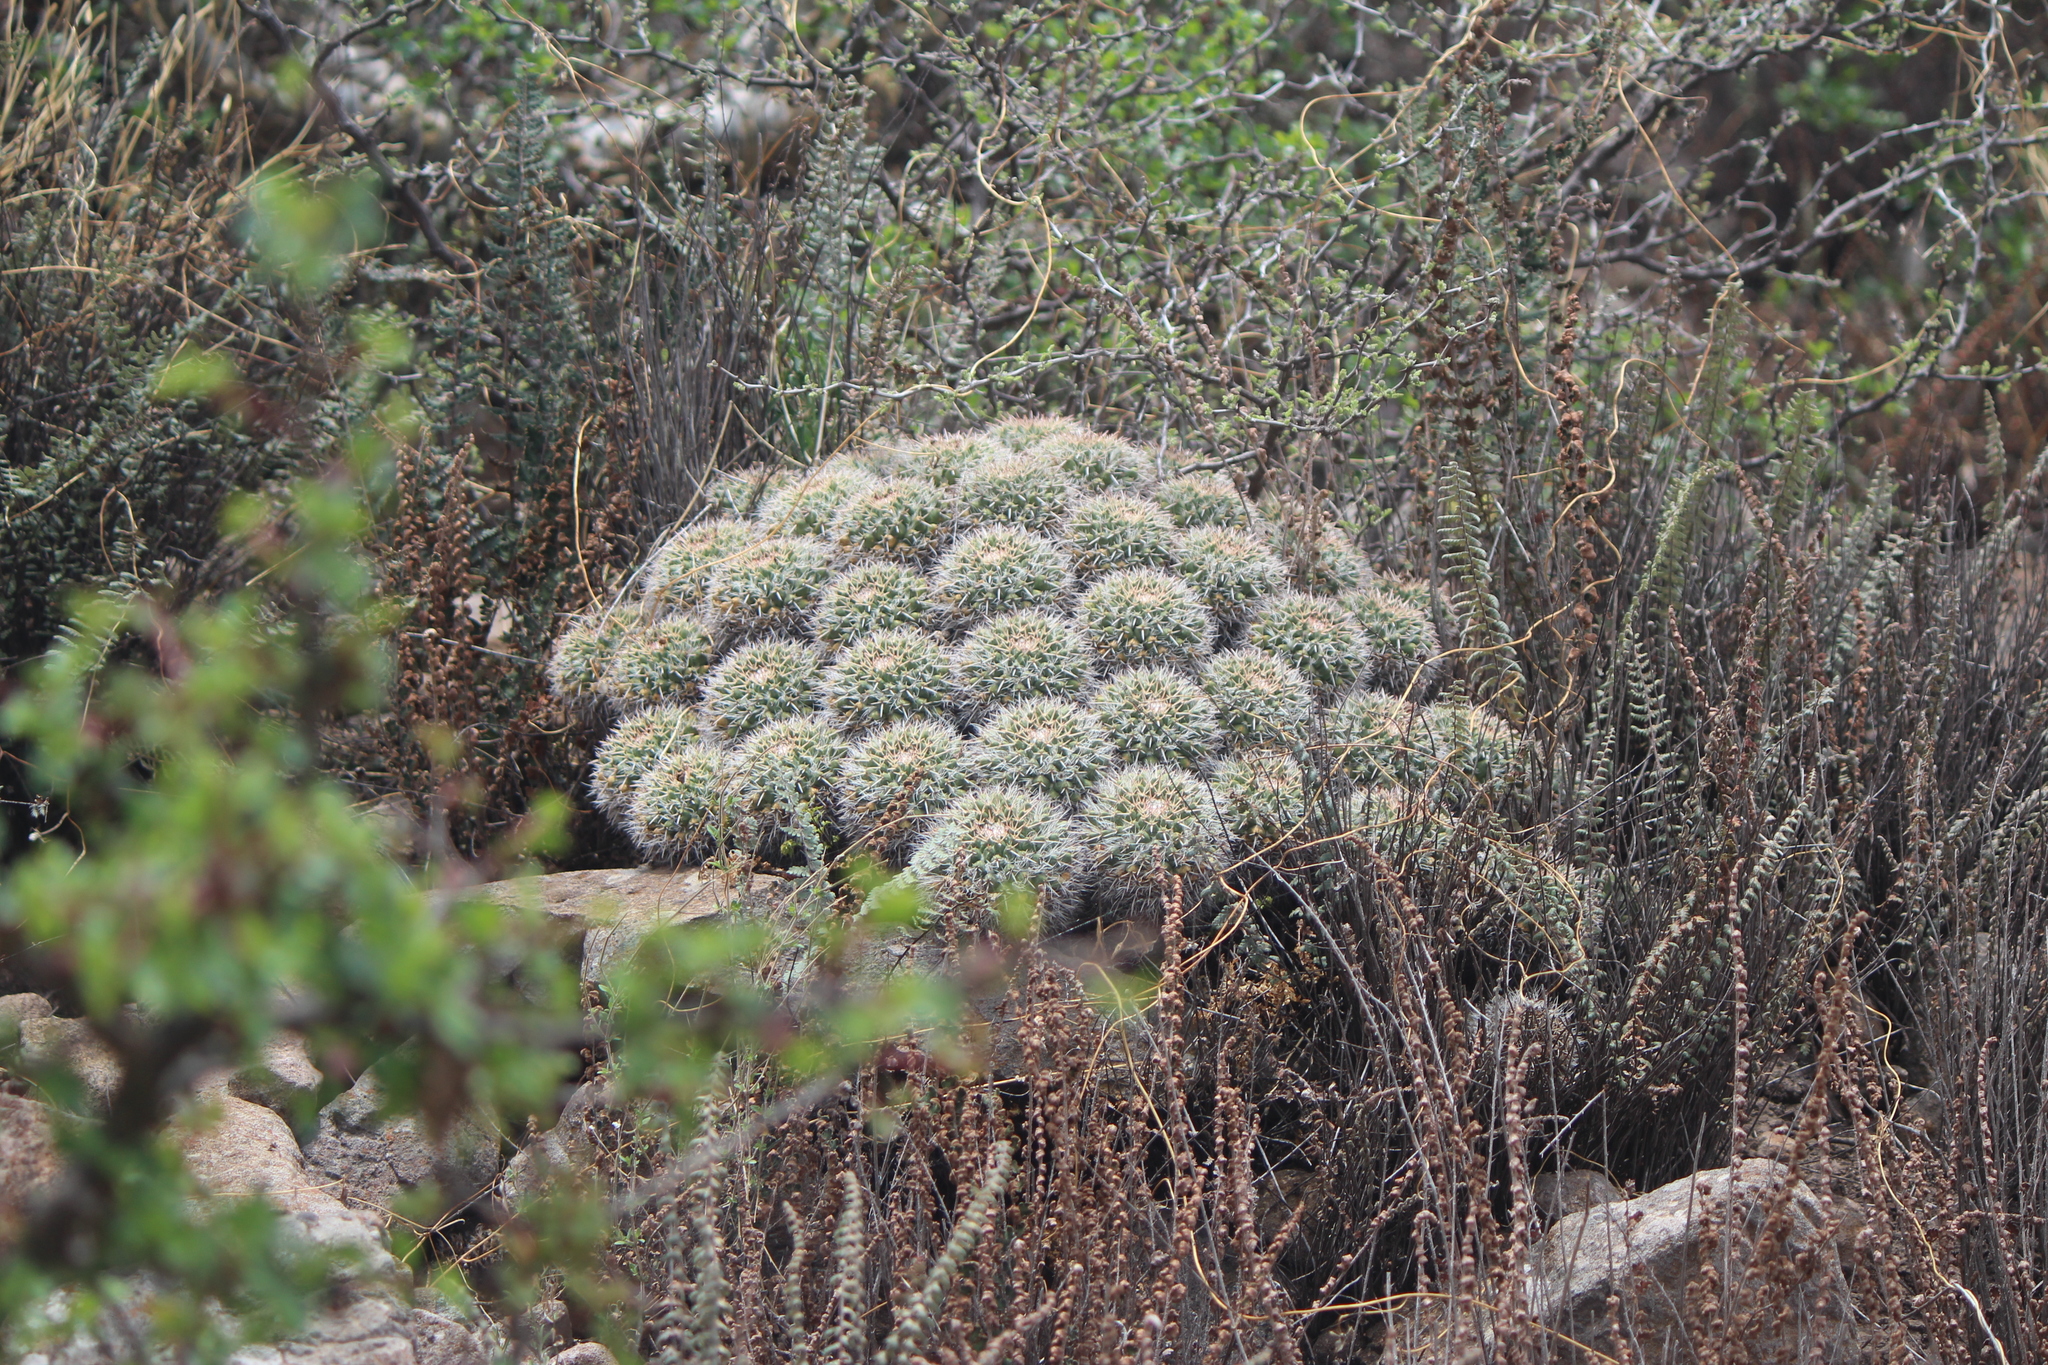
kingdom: Plantae
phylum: Tracheophyta
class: Magnoliopsida
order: Caryophyllales
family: Cactaceae
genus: Mammillaria
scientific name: Mammillaria compressa
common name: Mother-of-hundreds
